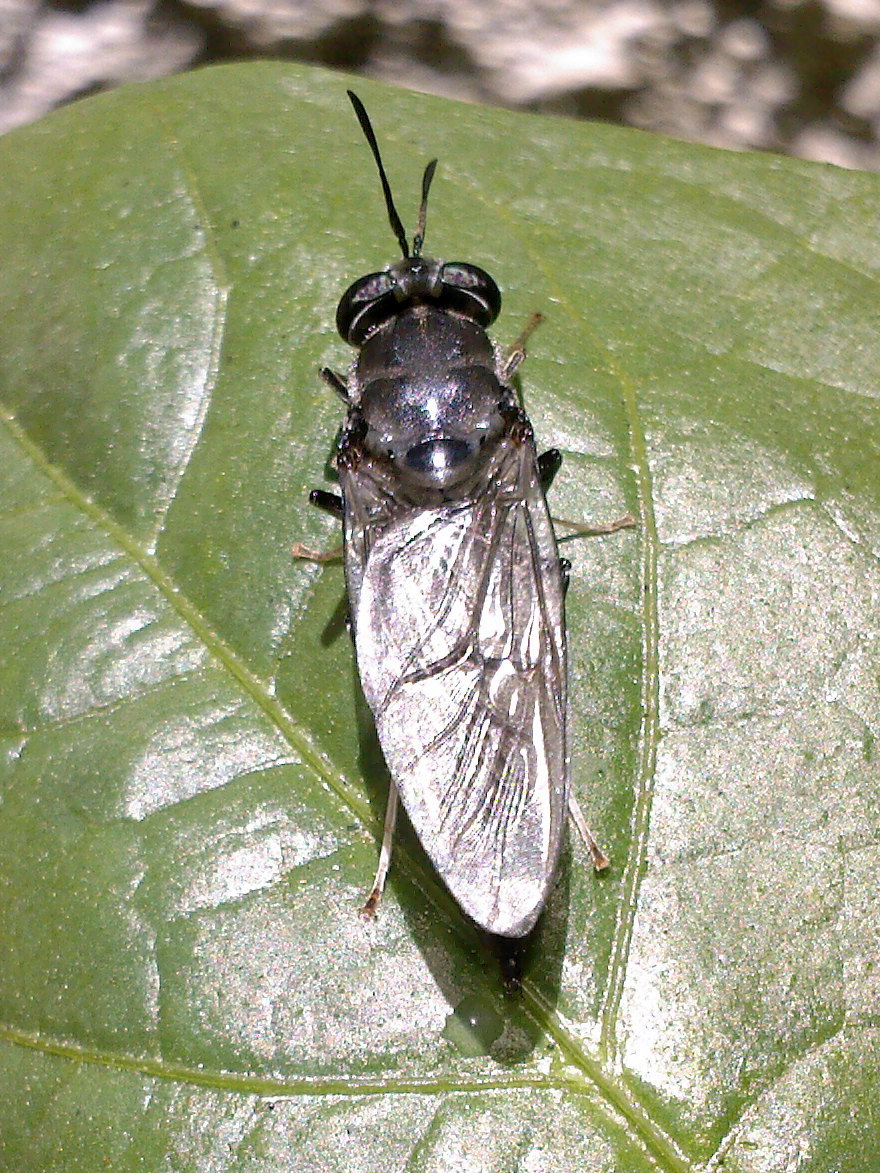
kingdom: Animalia
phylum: Arthropoda
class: Insecta
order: Diptera
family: Stratiomyidae
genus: Hermetia
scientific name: Hermetia illucens
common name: Black soldier fly
